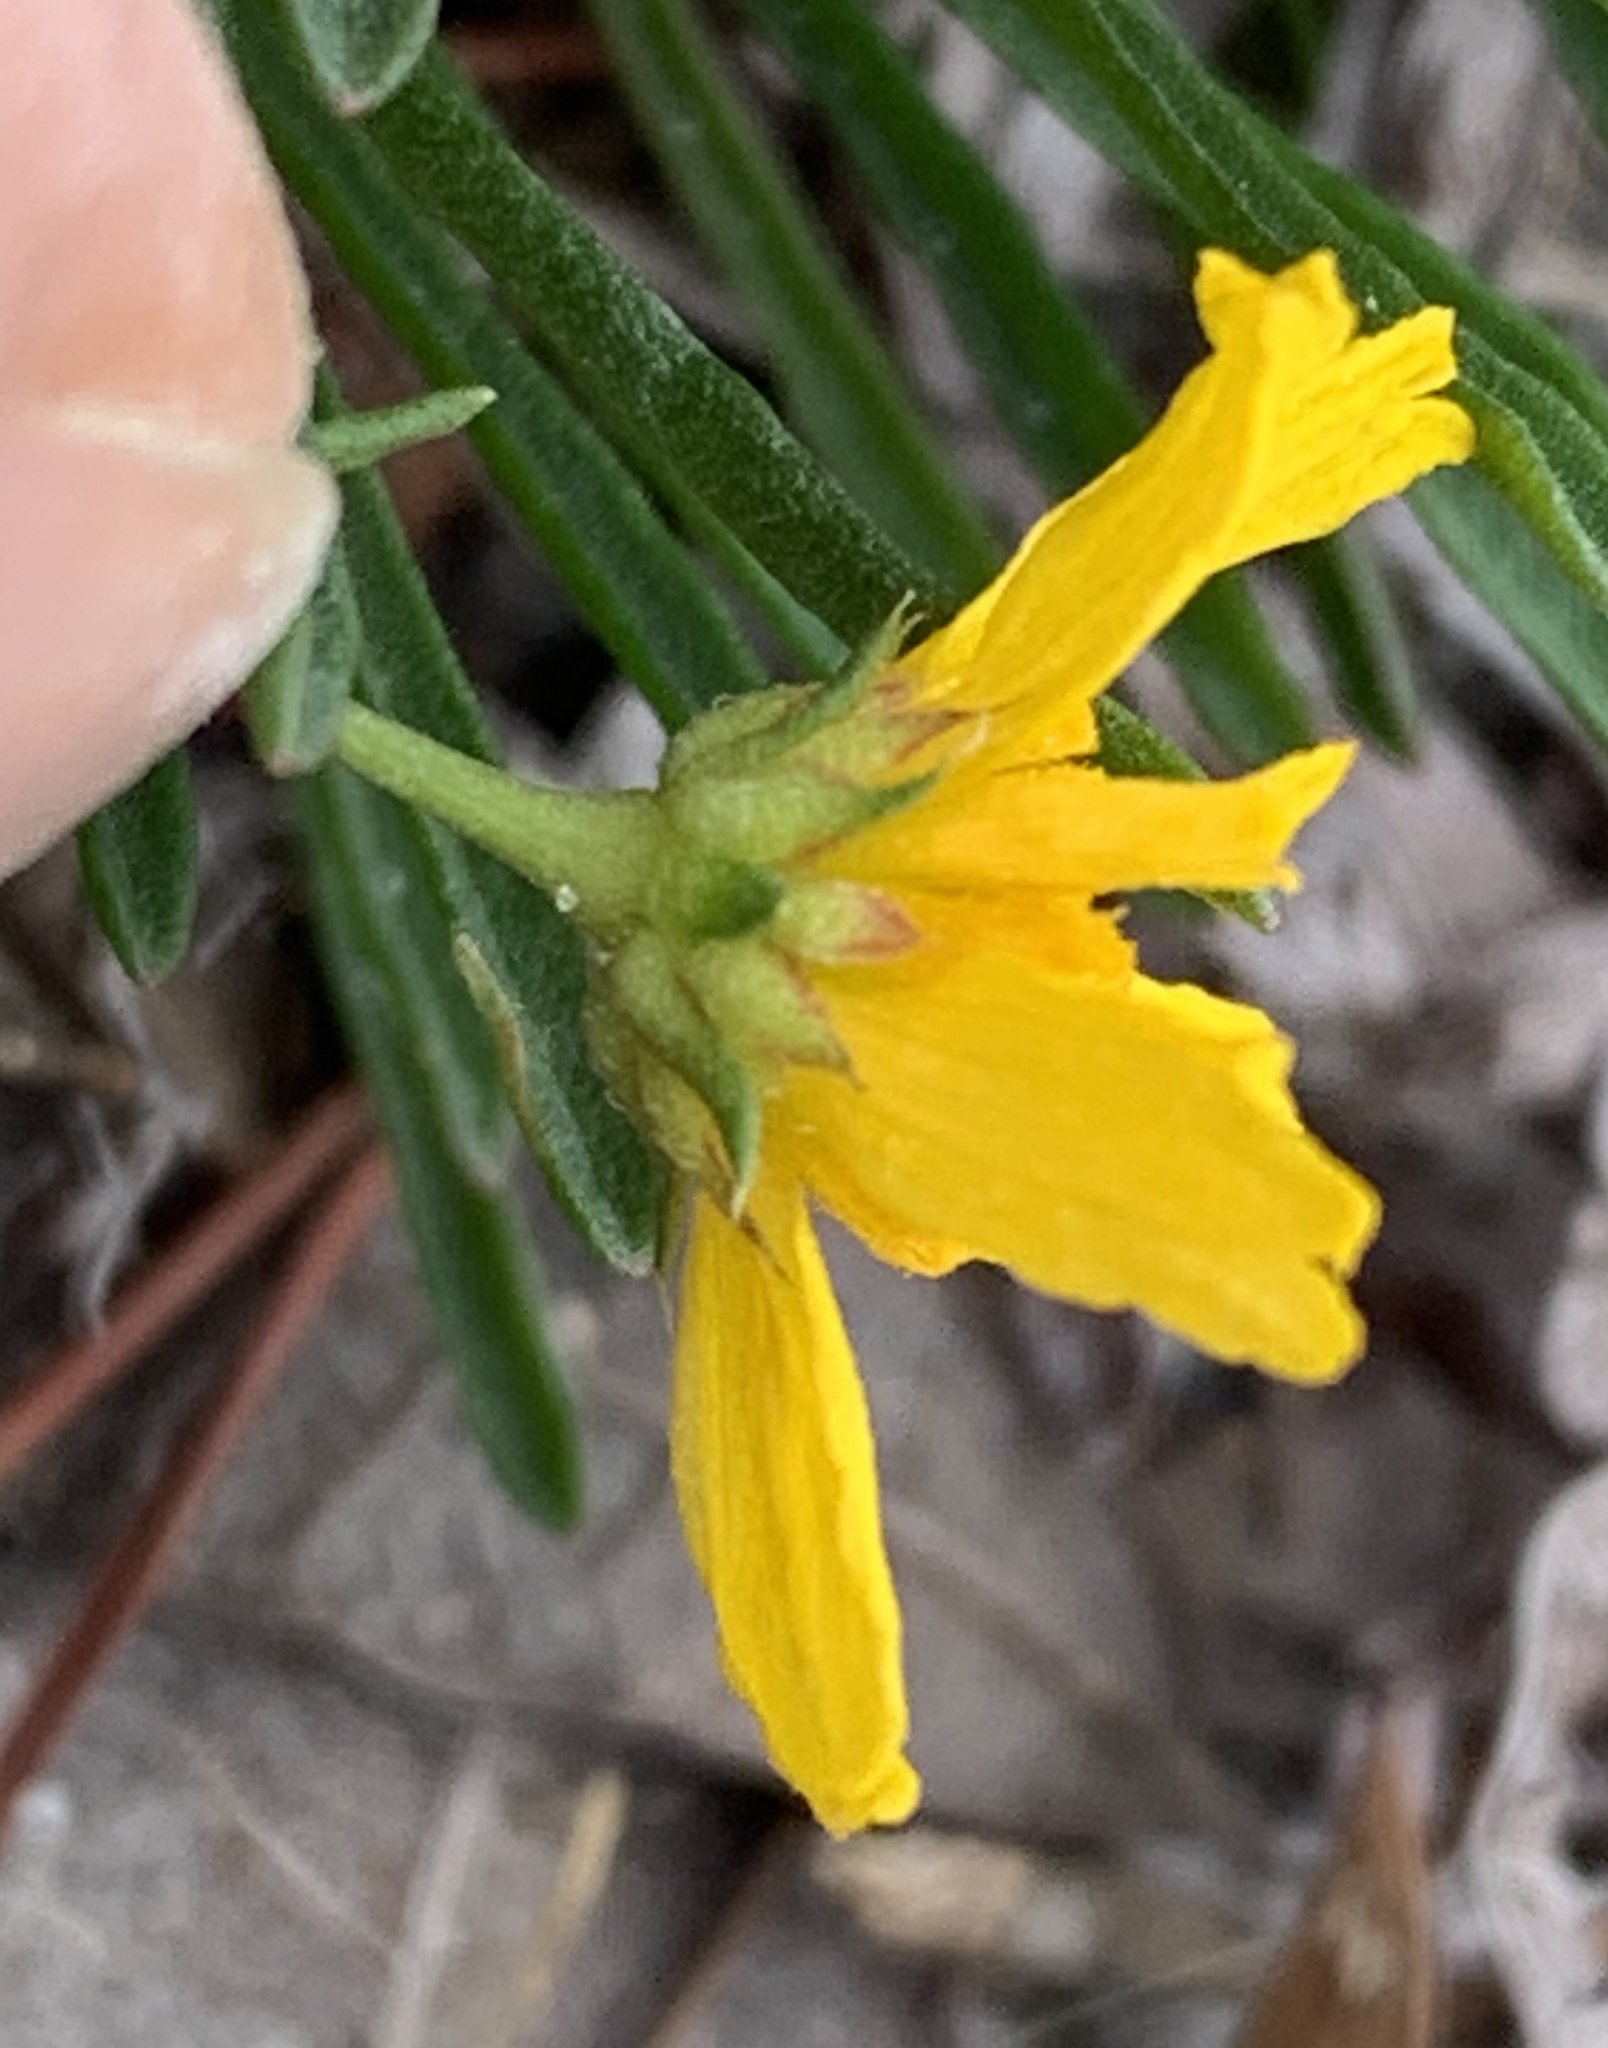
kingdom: Plantae
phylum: Tracheophyta
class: Magnoliopsida
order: Asterales
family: Asteraceae
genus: Balduina
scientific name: Balduina angustifolia
